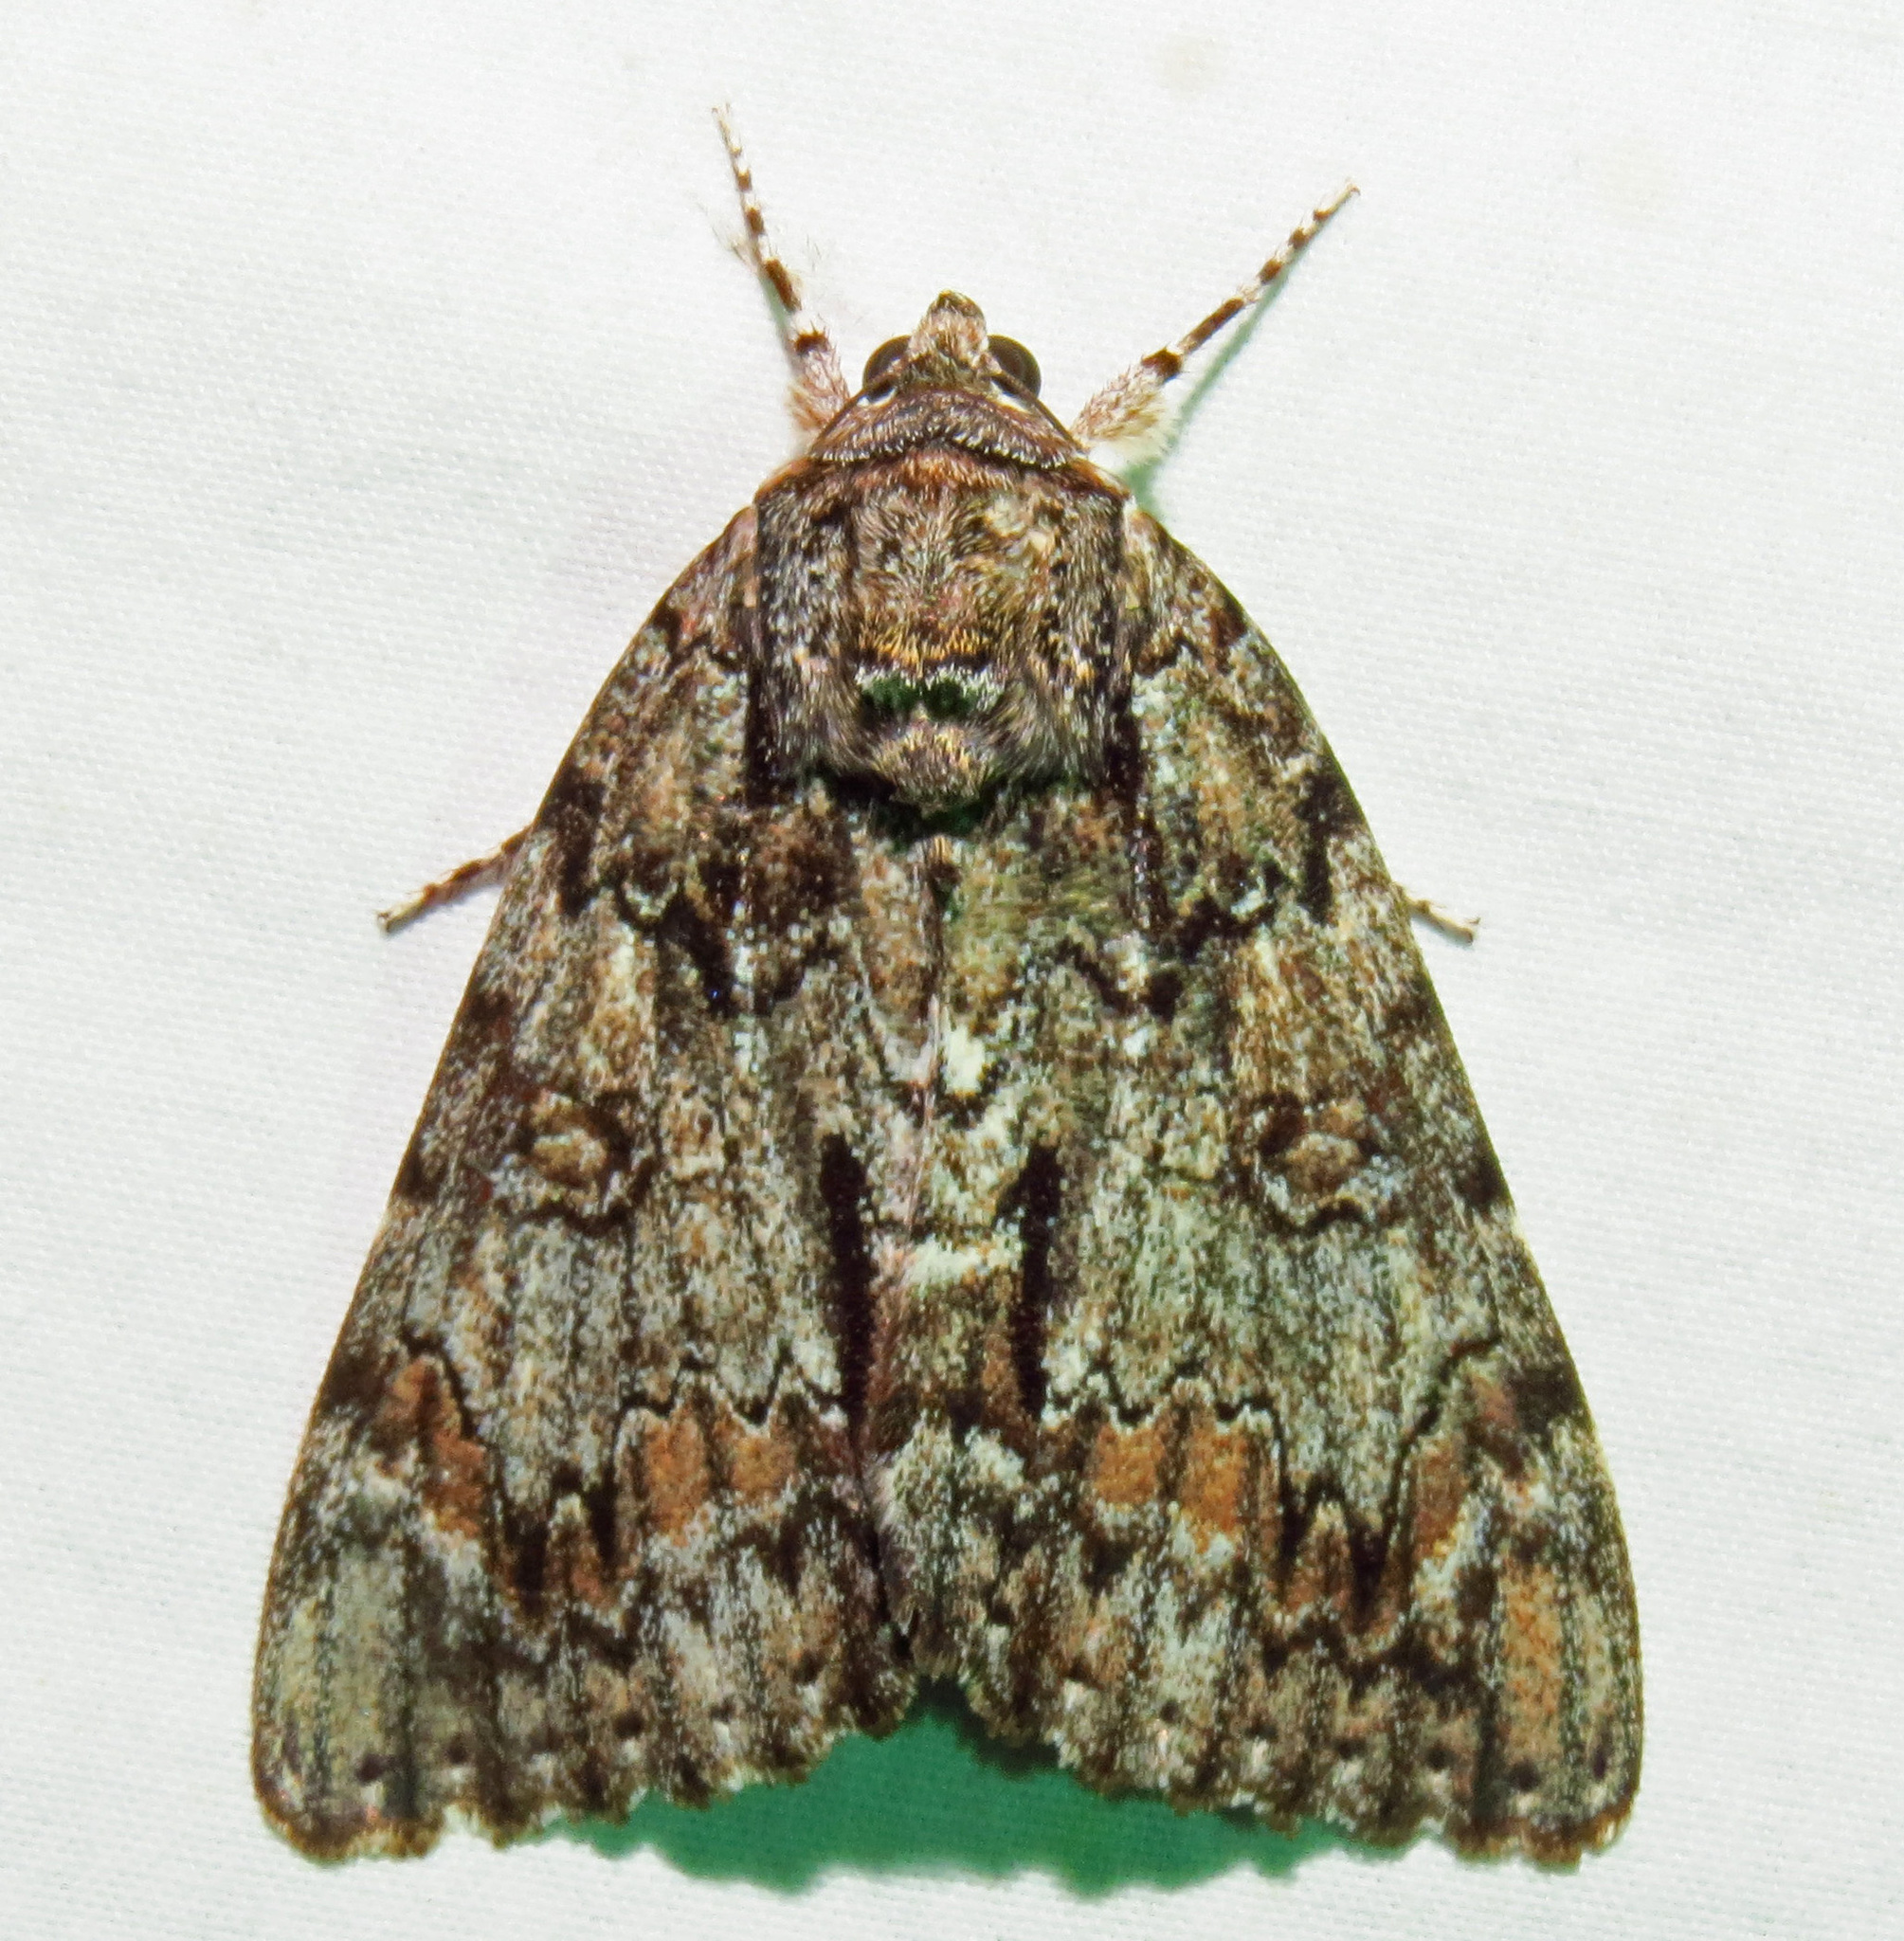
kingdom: Animalia
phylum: Arthropoda
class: Insecta
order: Lepidoptera
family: Erebidae
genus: Catocala
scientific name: Catocala palaeogama
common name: Oldwife underwing
